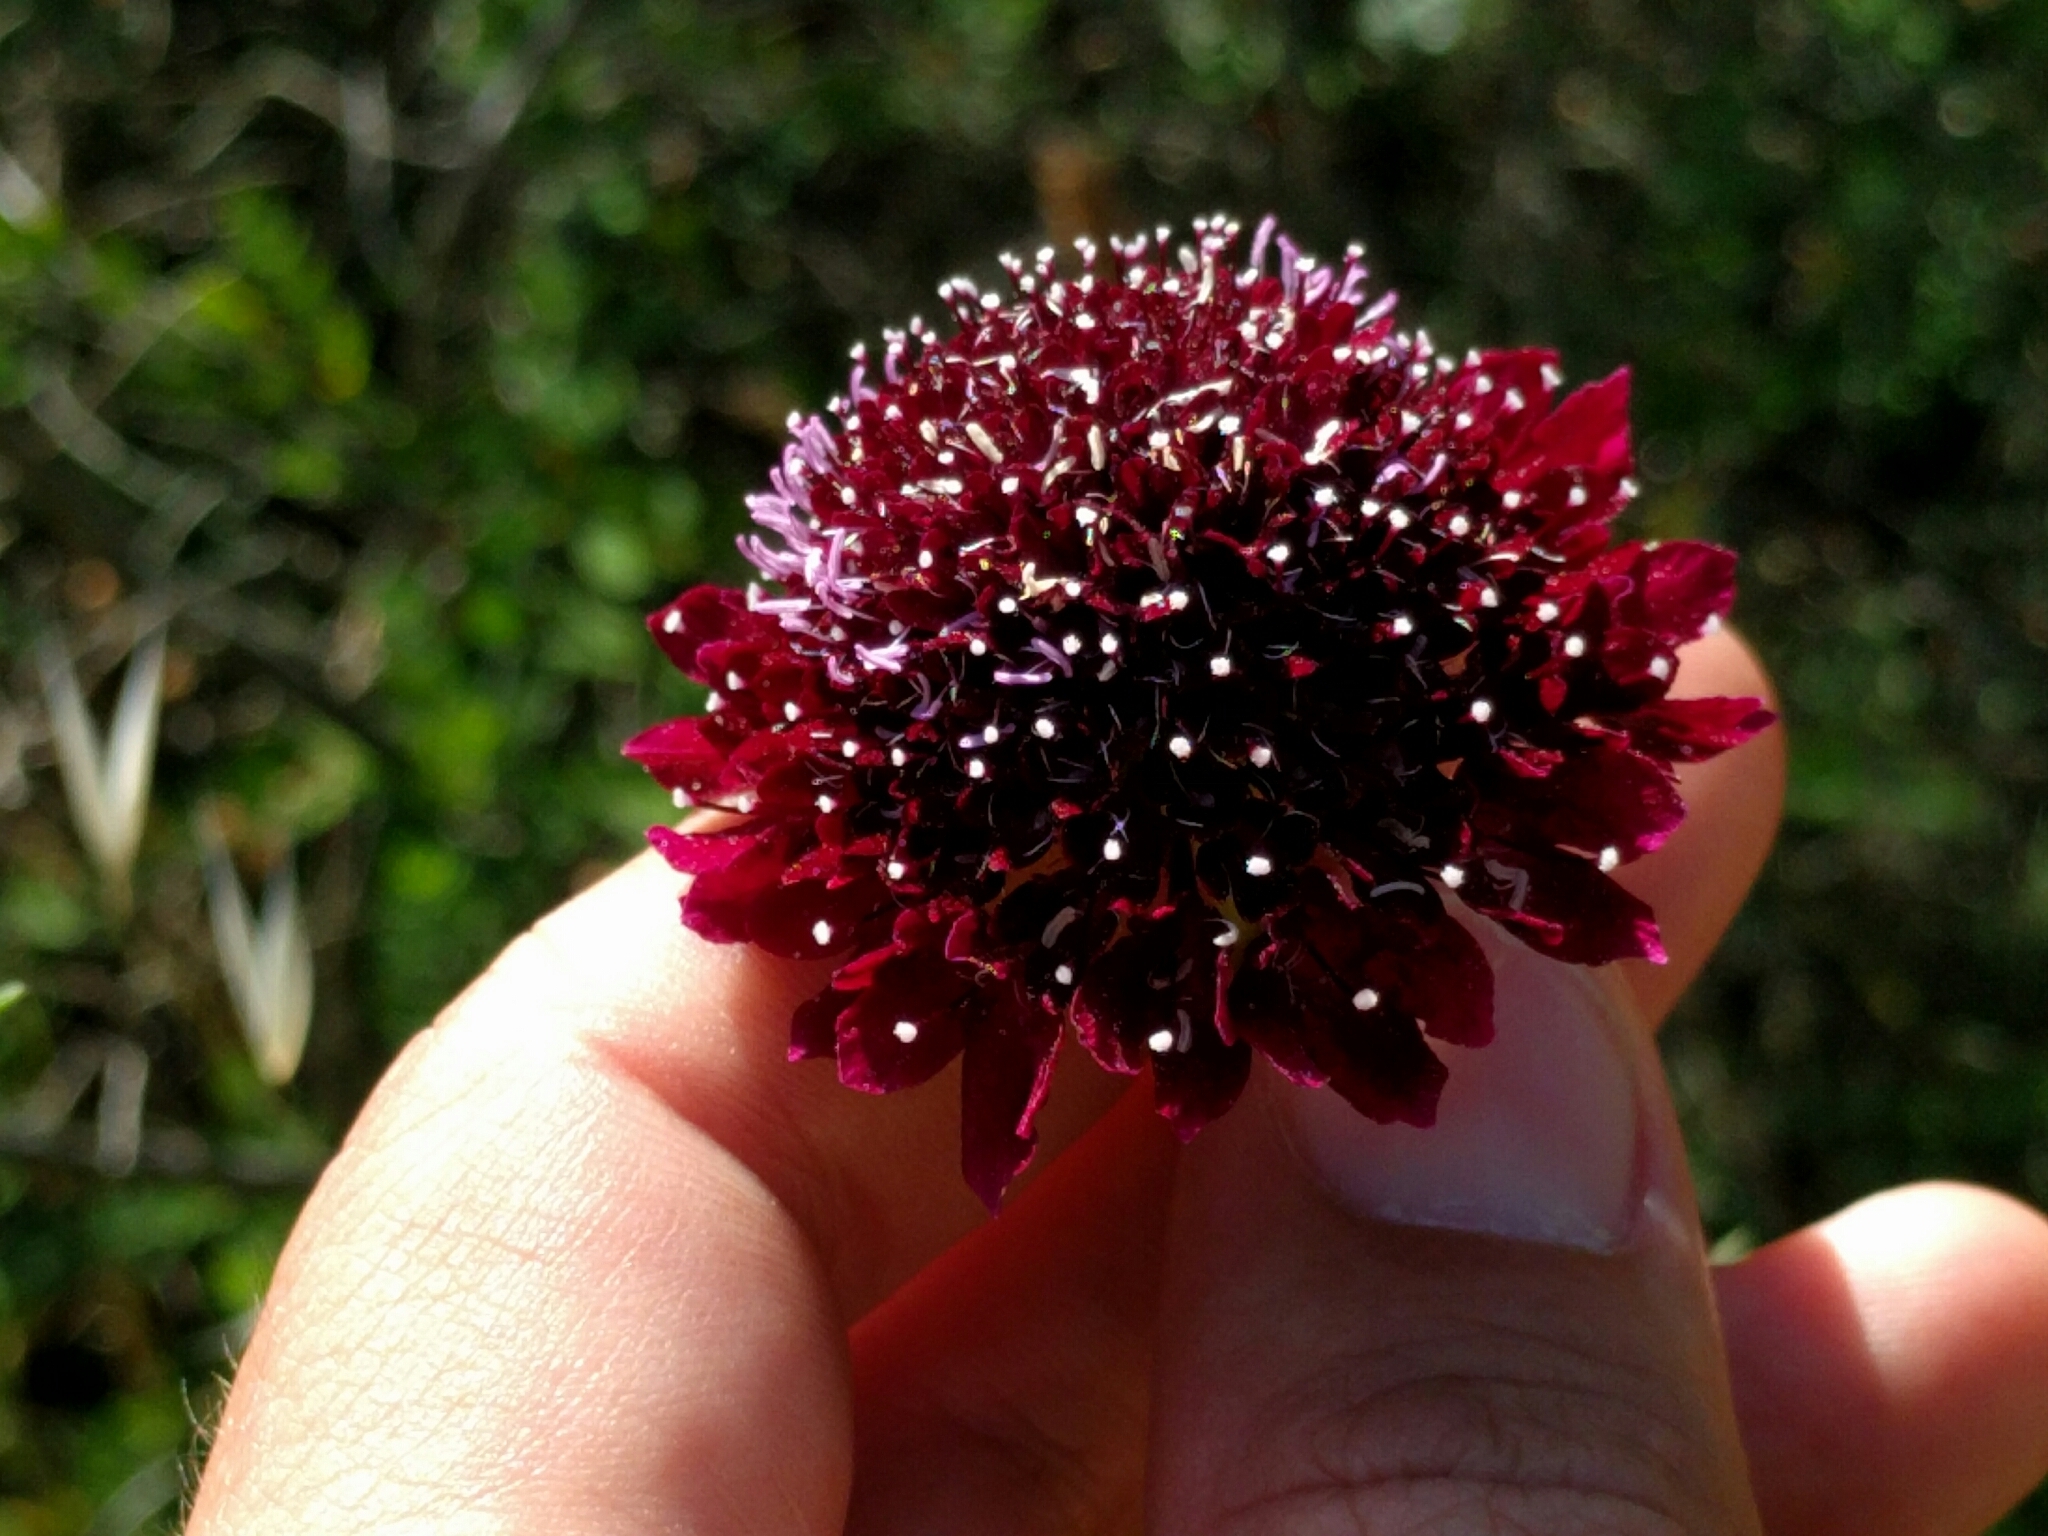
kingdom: Plantae
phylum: Tracheophyta
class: Magnoliopsida
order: Dipsacales
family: Caprifoliaceae
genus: Sixalix
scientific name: Sixalix atropurpurea
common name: Sweet scabious
